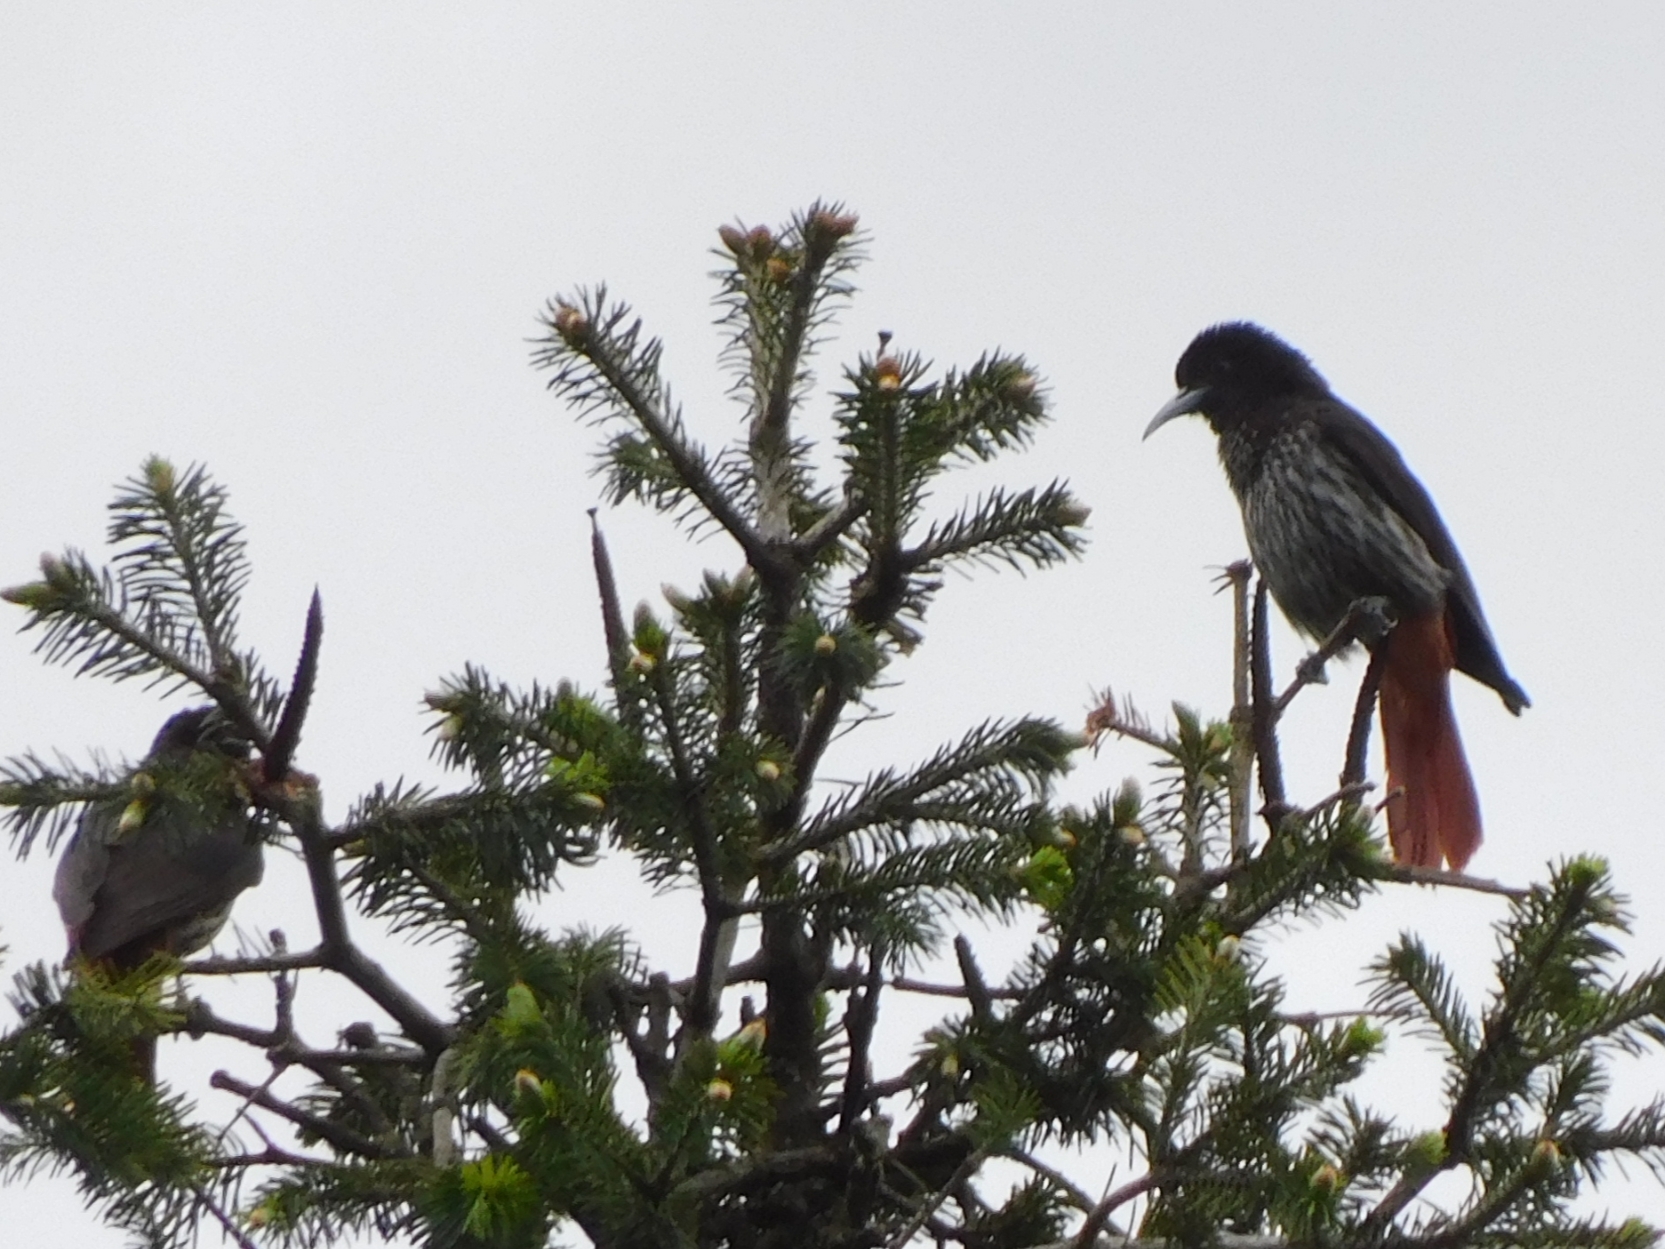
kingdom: Animalia
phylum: Chordata
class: Aves
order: Passeriformes
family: Oriolidae
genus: Oriolus
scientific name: Oriolus traillii
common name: Maroon oriole
